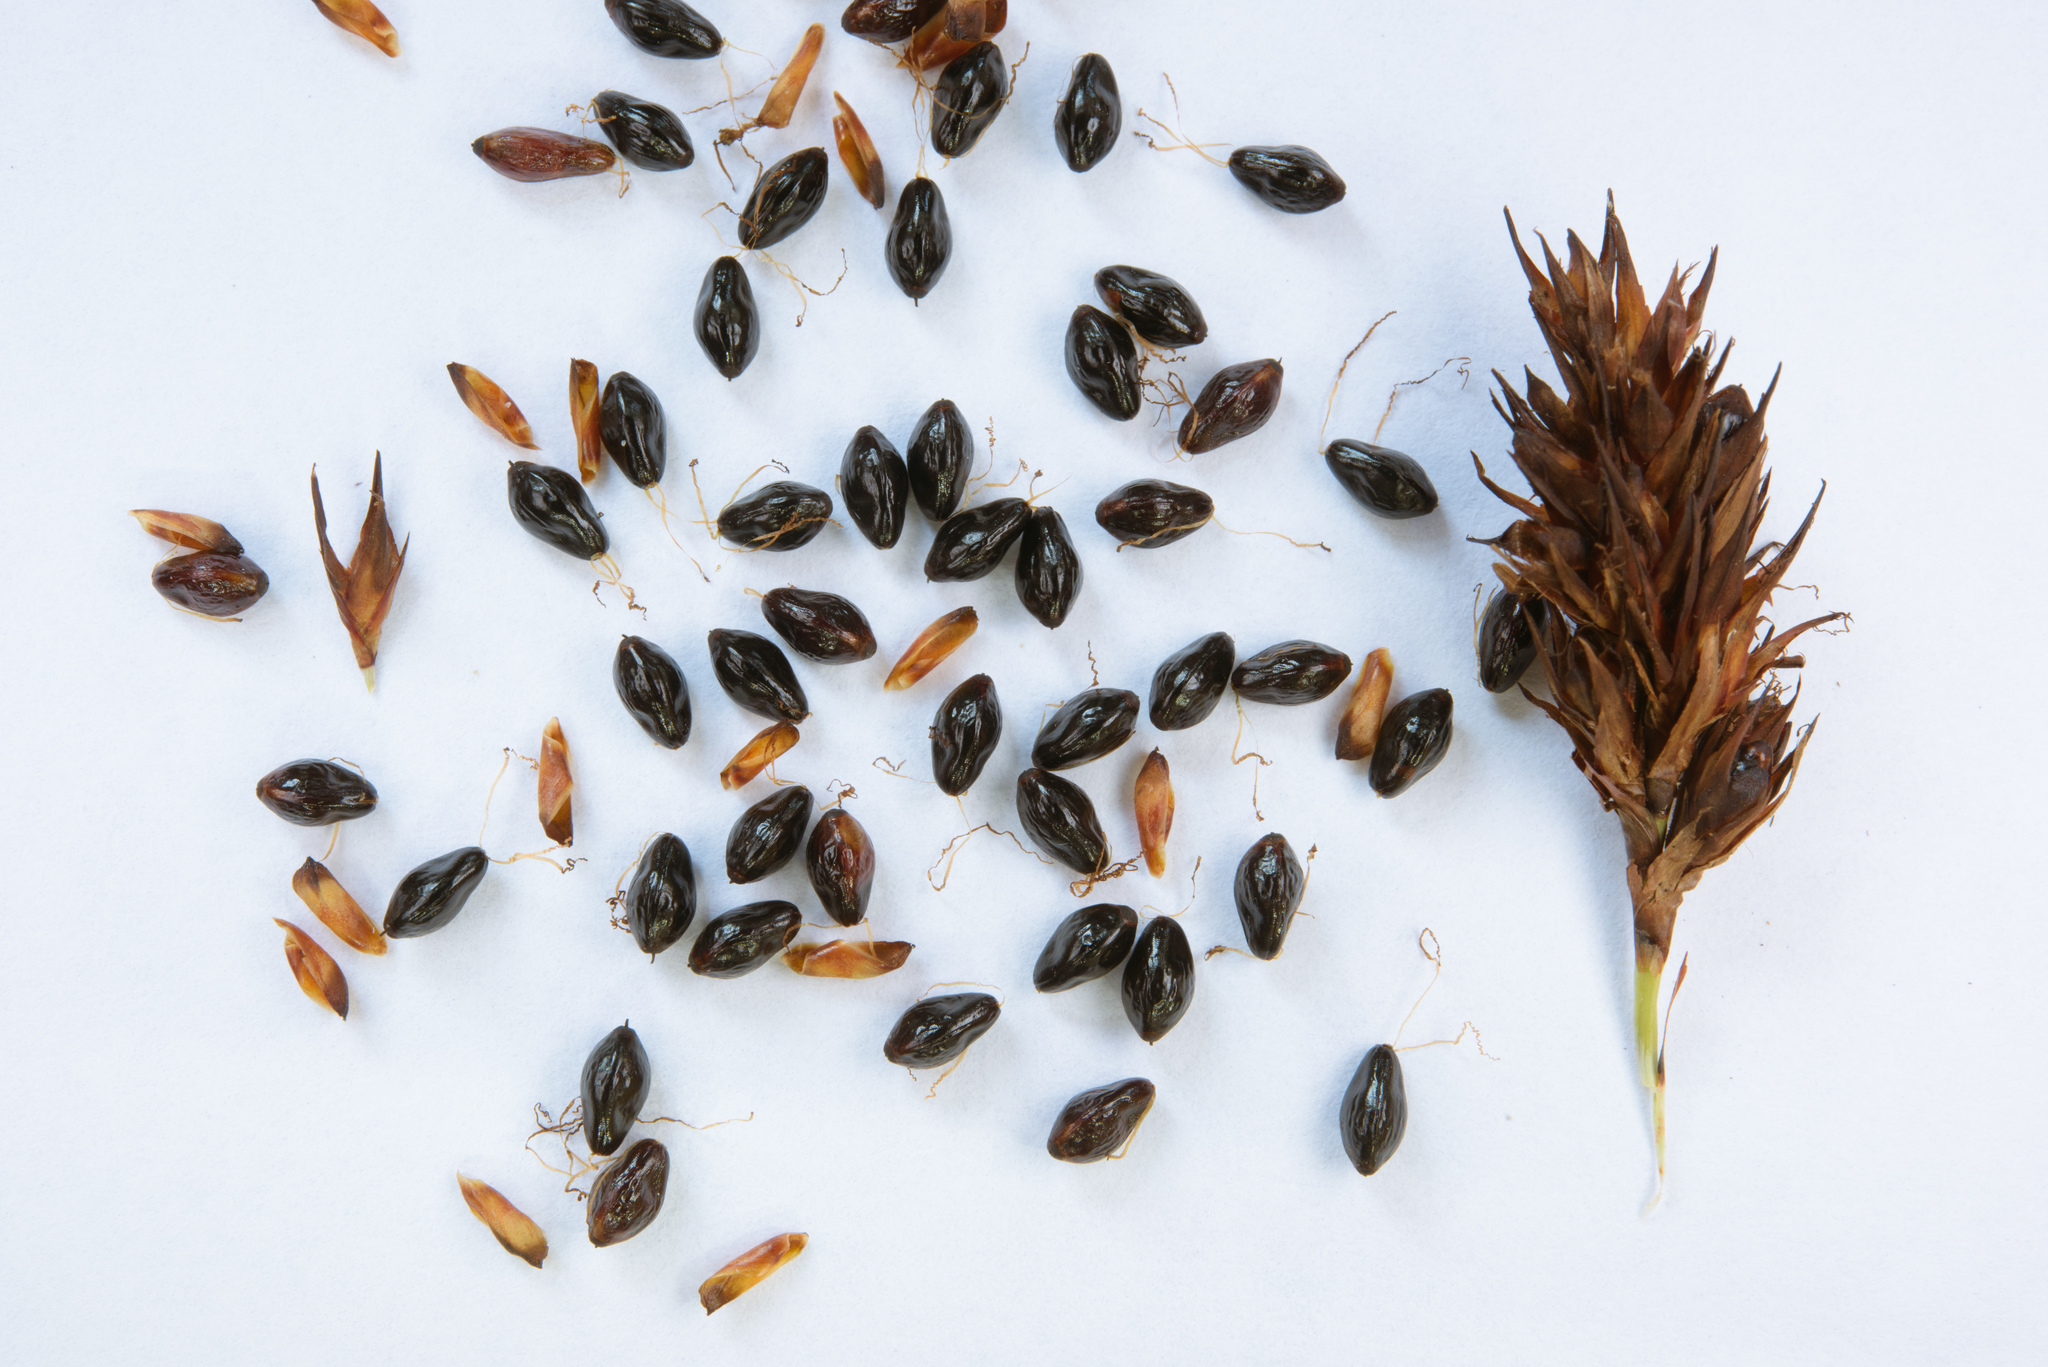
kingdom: Plantae
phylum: Tracheophyta
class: Liliopsida
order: Poales
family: Cyperaceae
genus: Gahnia
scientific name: Gahnia tristis
